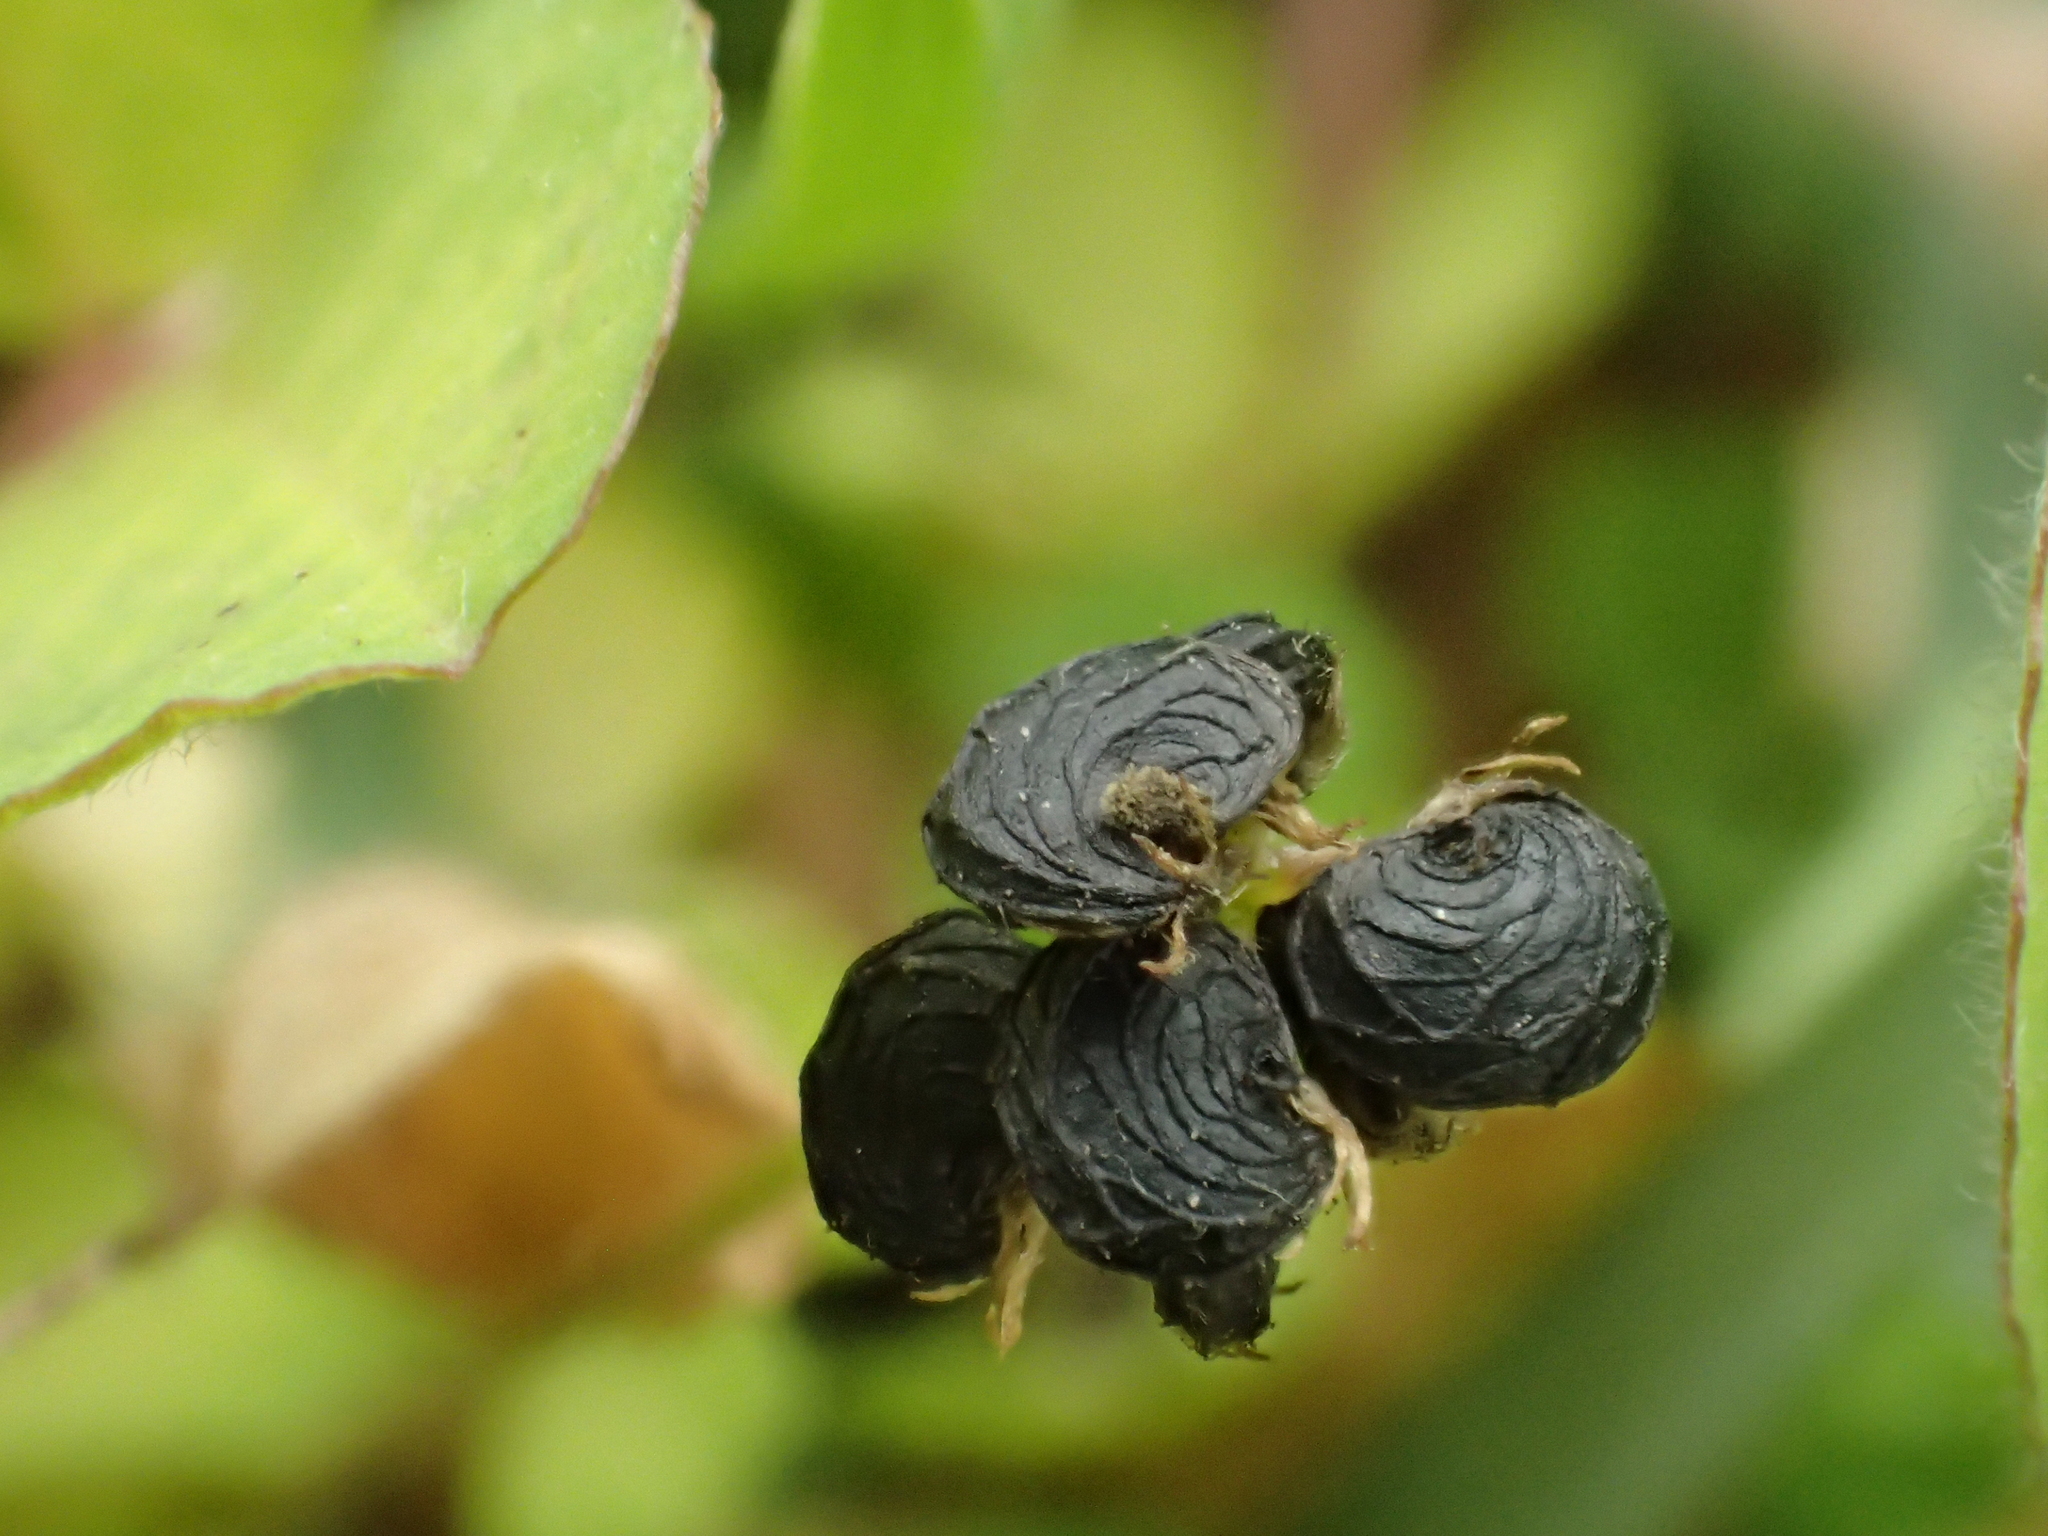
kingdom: Plantae
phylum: Tracheophyta
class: Magnoliopsida
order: Fabales
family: Fabaceae
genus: Medicago
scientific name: Medicago lupulina
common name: Black medick
